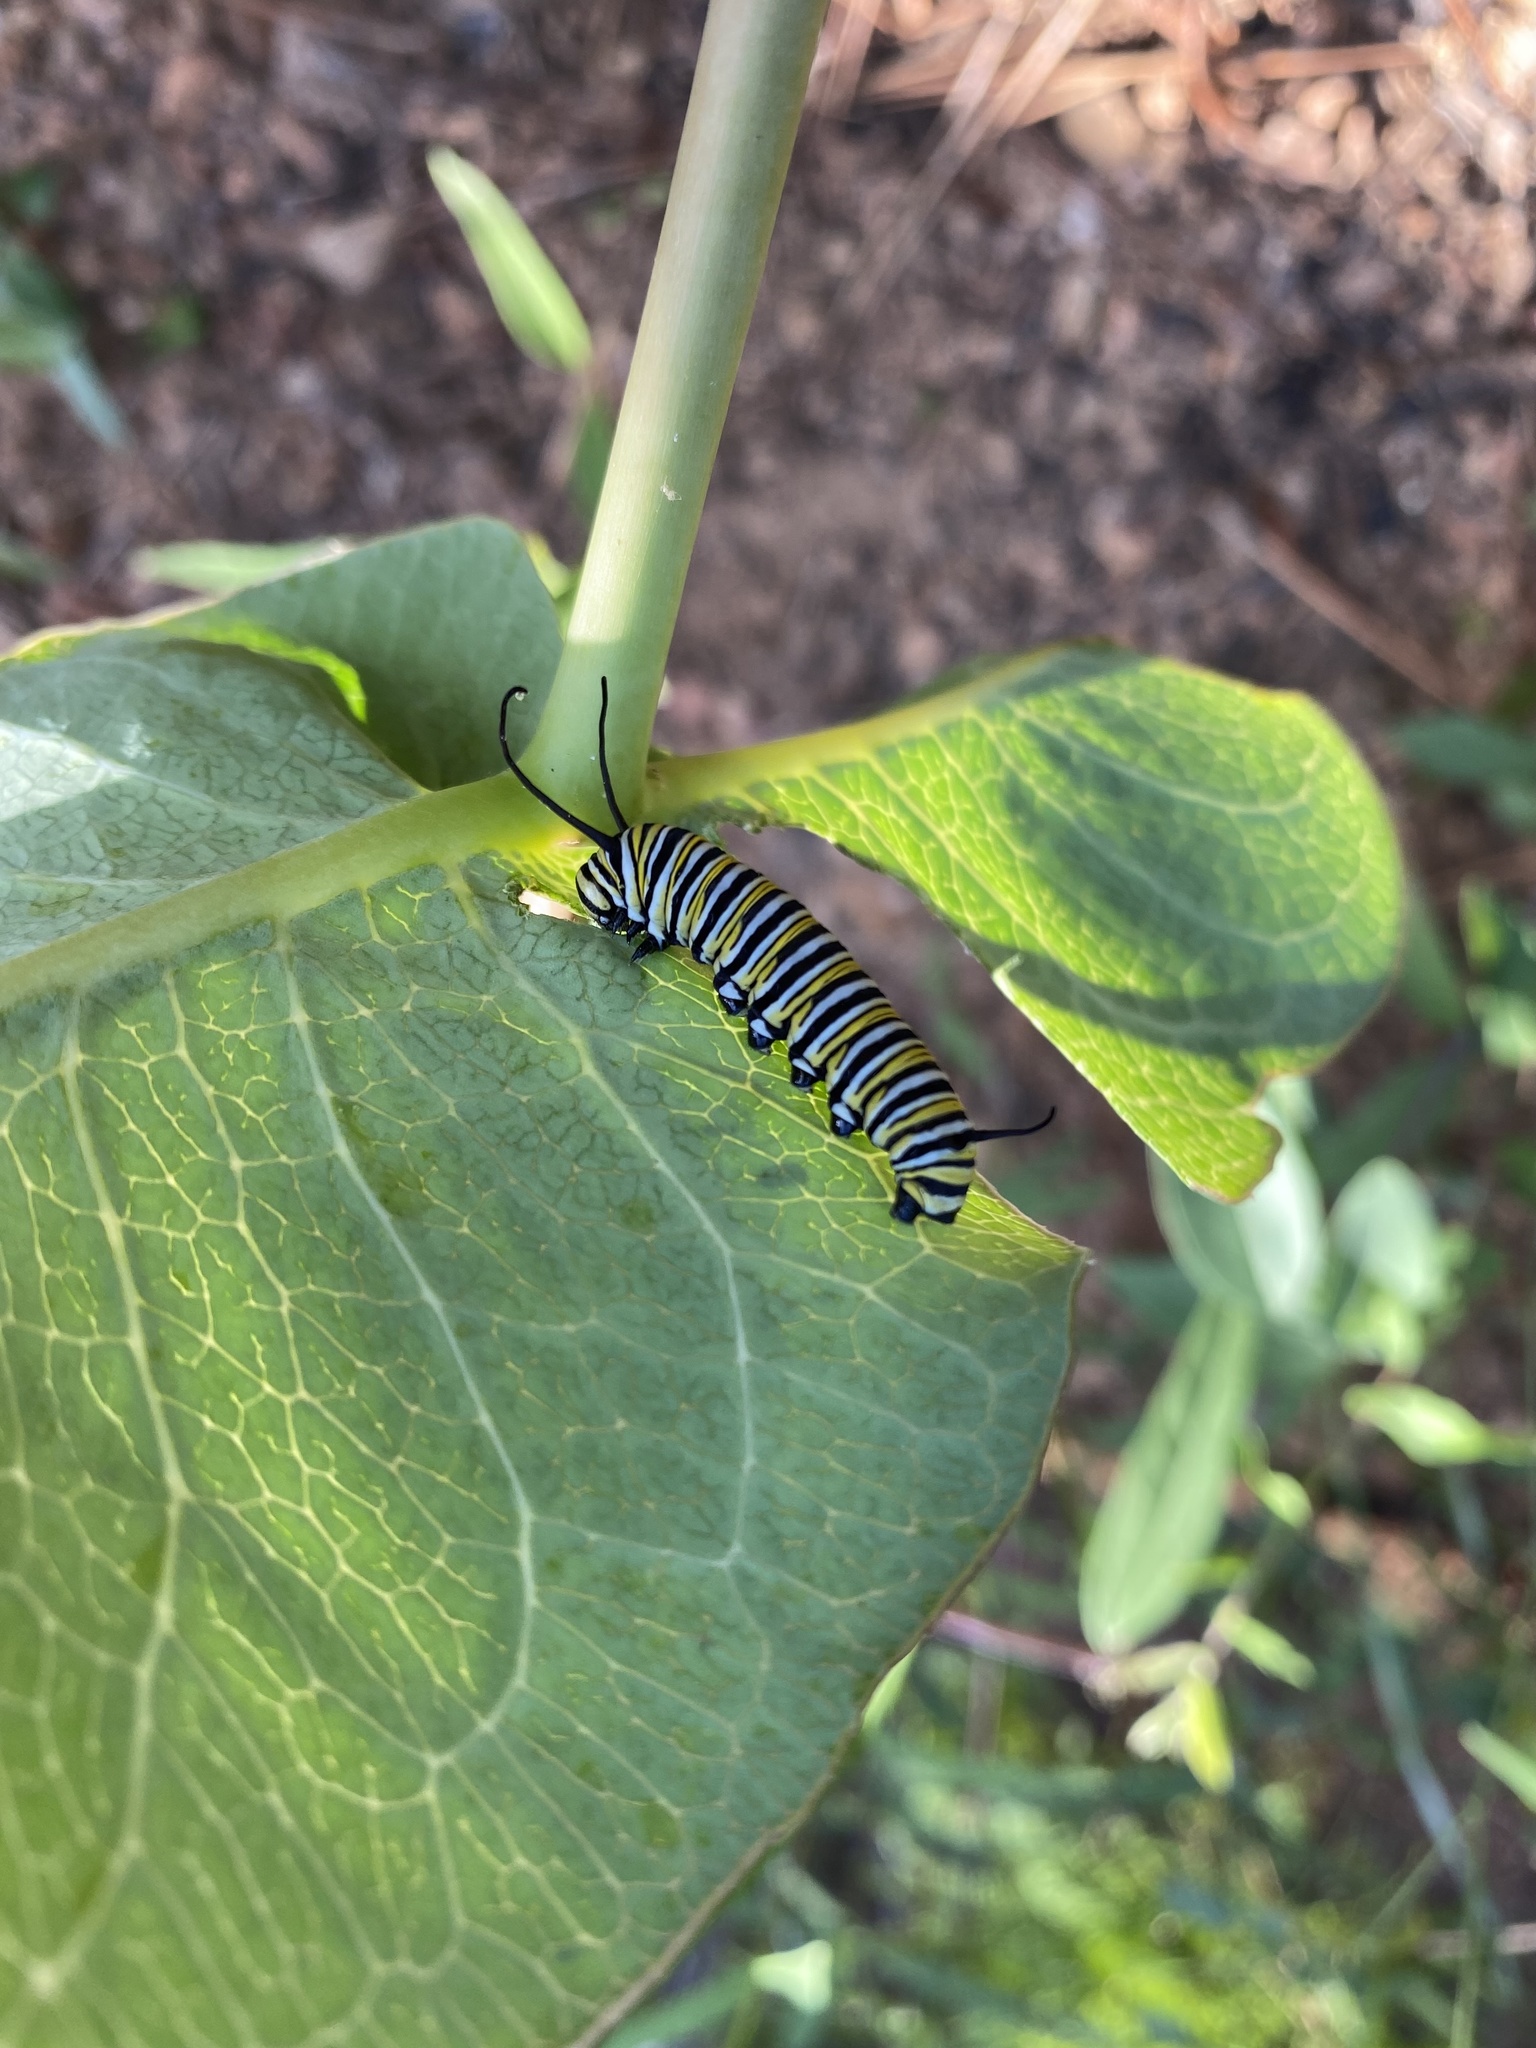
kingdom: Animalia
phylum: Arthropoda
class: Insecta
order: Lepidoptera
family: Nymphalidae
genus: Danaus
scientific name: Danaus plexippus
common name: Monarch
